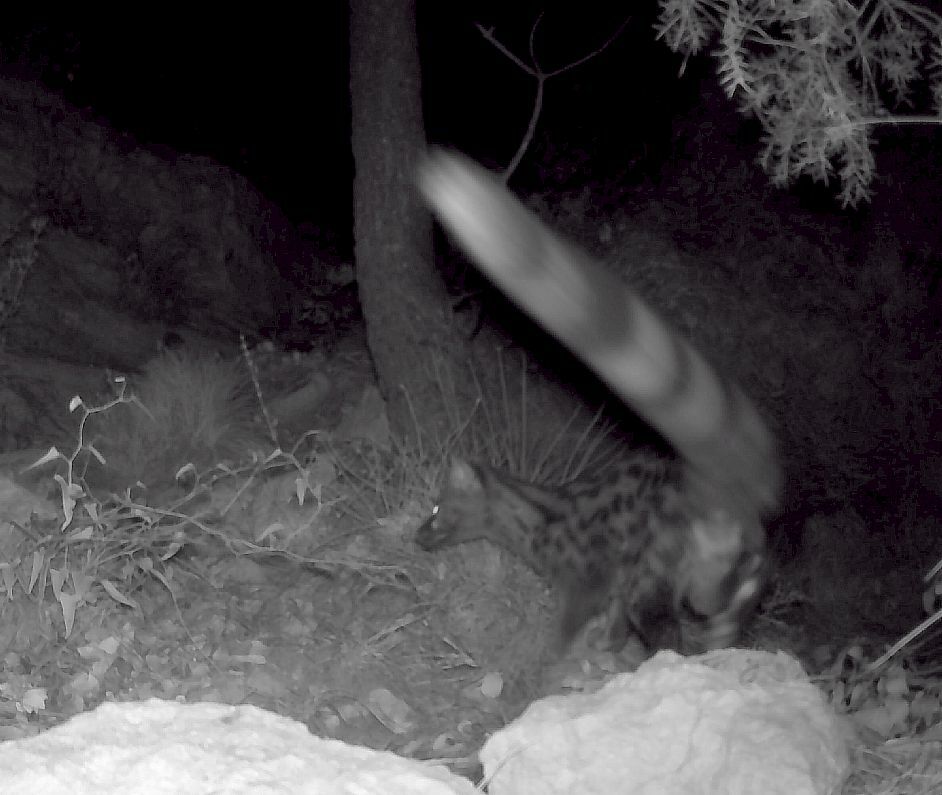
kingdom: Animalia
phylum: Chordata
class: Mammalia
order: Carnivora
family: Viverridae
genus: Genetta
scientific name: Genetta genetta
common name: Common genet
